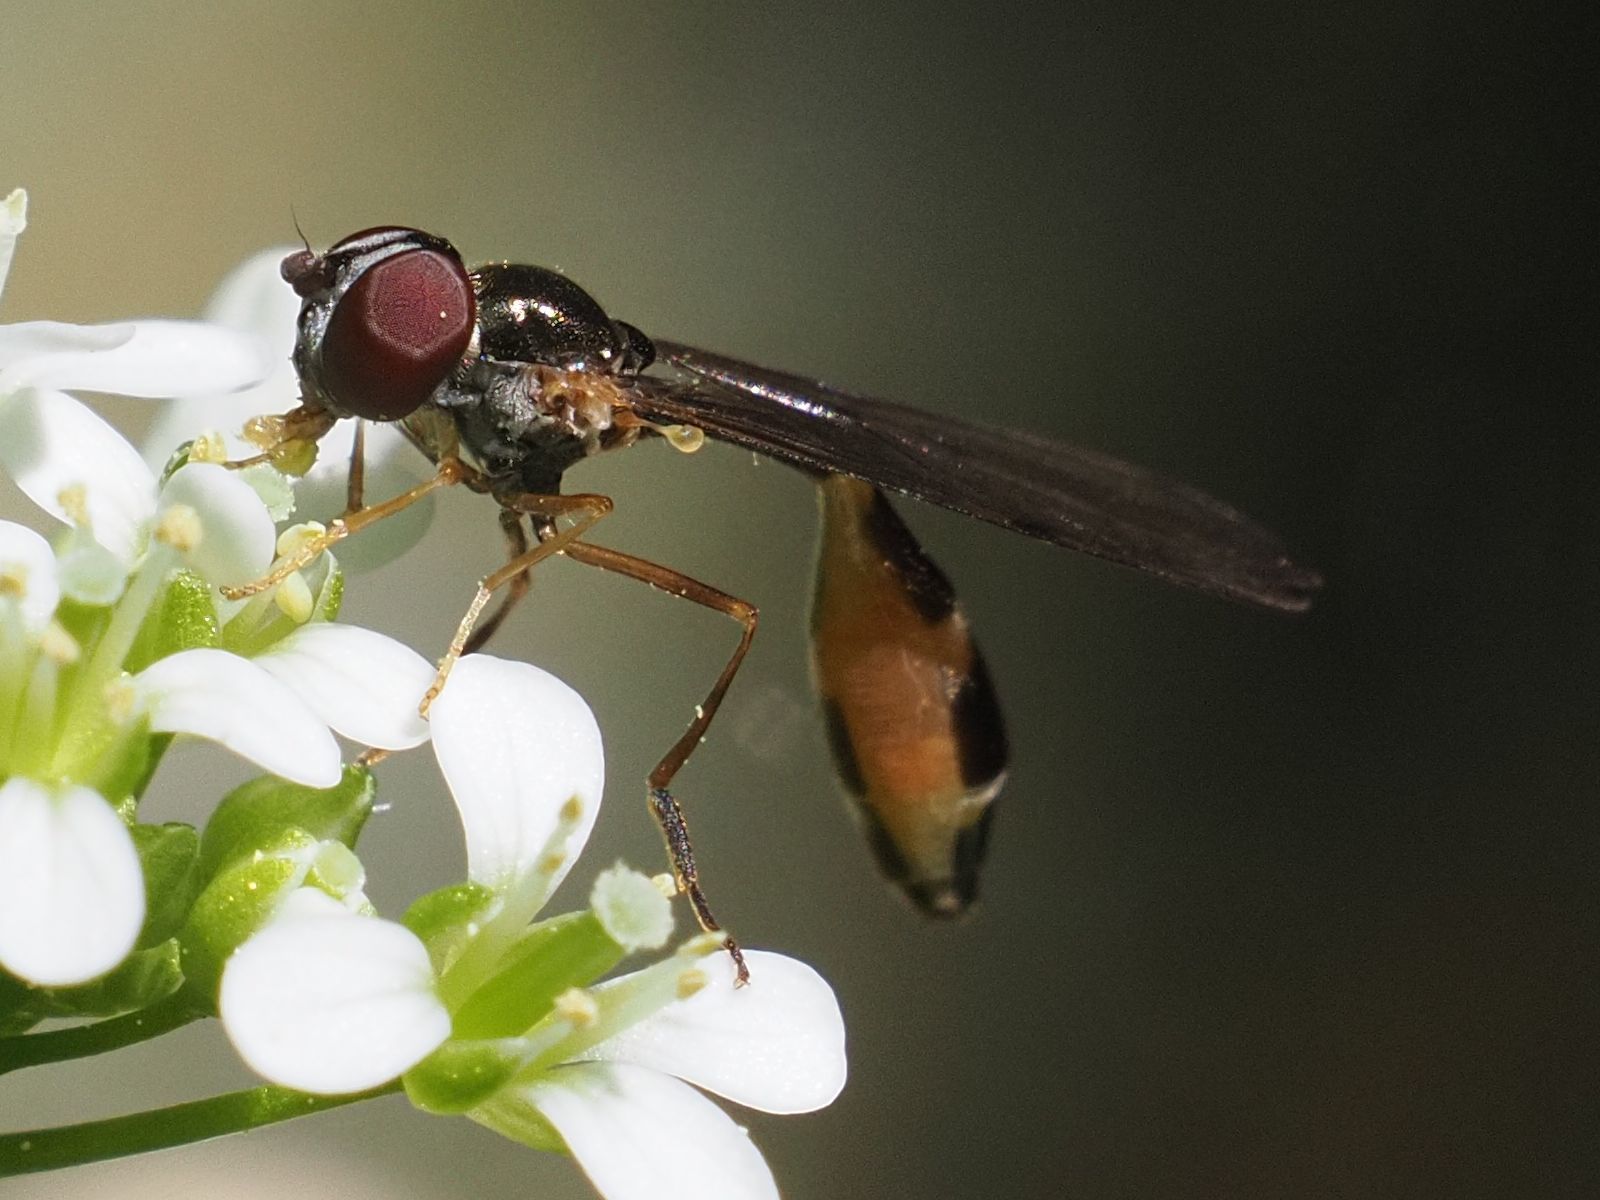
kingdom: Animalia
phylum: Arthropoda
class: Insecta
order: Diptera
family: Syrphidae
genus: Baccha
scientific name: Baccha elongata
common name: Common dainty
